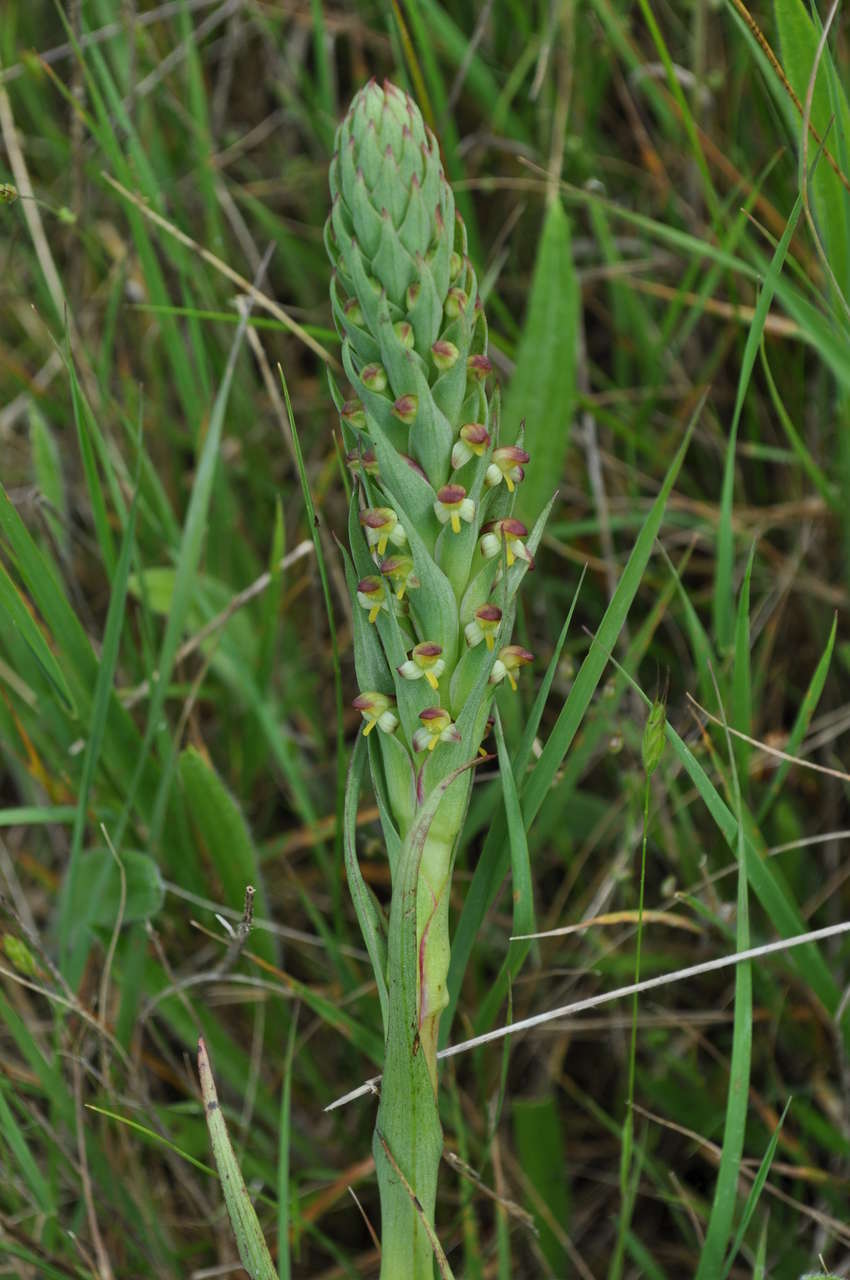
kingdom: Plantae
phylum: Tracheophyta
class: Liliopsida
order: Asparagales
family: Orchidaceae
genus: Disa
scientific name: Disa bracteata
